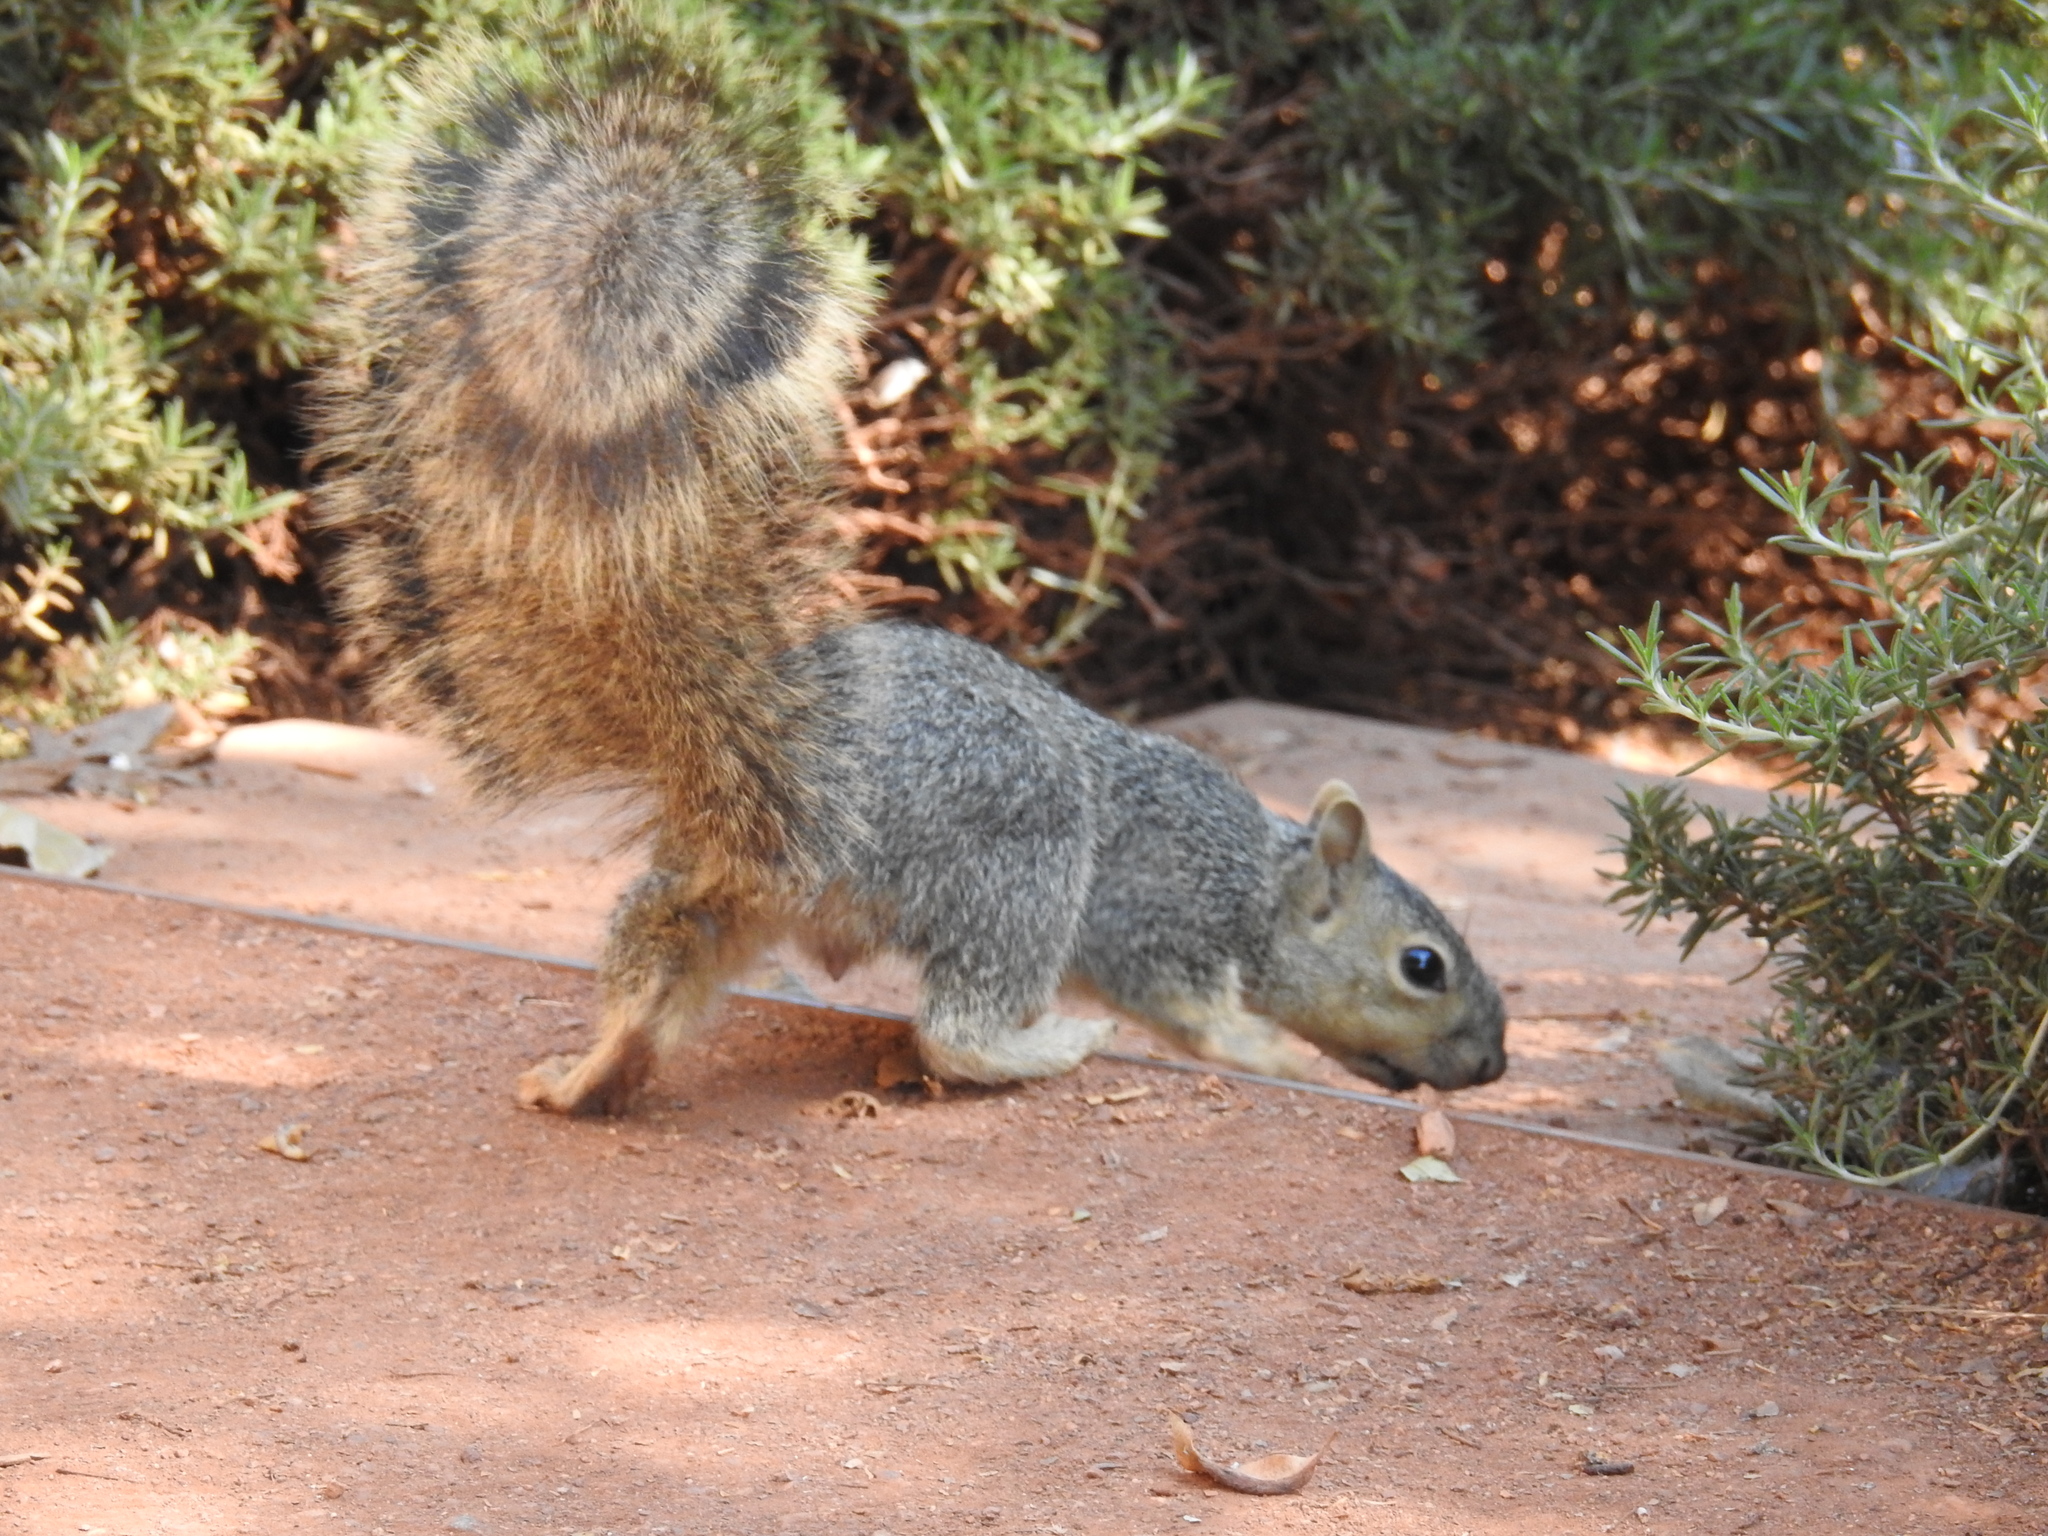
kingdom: Animalia
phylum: Chordata
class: Mammalia
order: Rodentia
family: Sciuridae
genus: Sciurus
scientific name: Sciurus niger
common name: Fox squirrel
